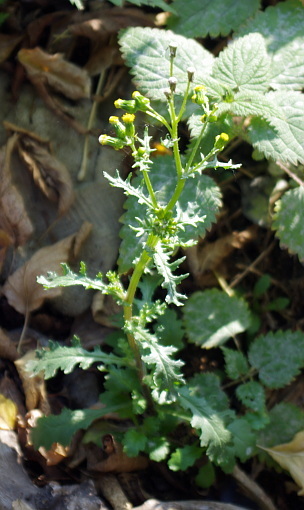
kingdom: Plantae
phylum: Tracheophyta
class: Magnoliopsida
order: Asterales
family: Asteraceae
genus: Senecio
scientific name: Senecio vulgaris
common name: Old-man-in-the-spring
